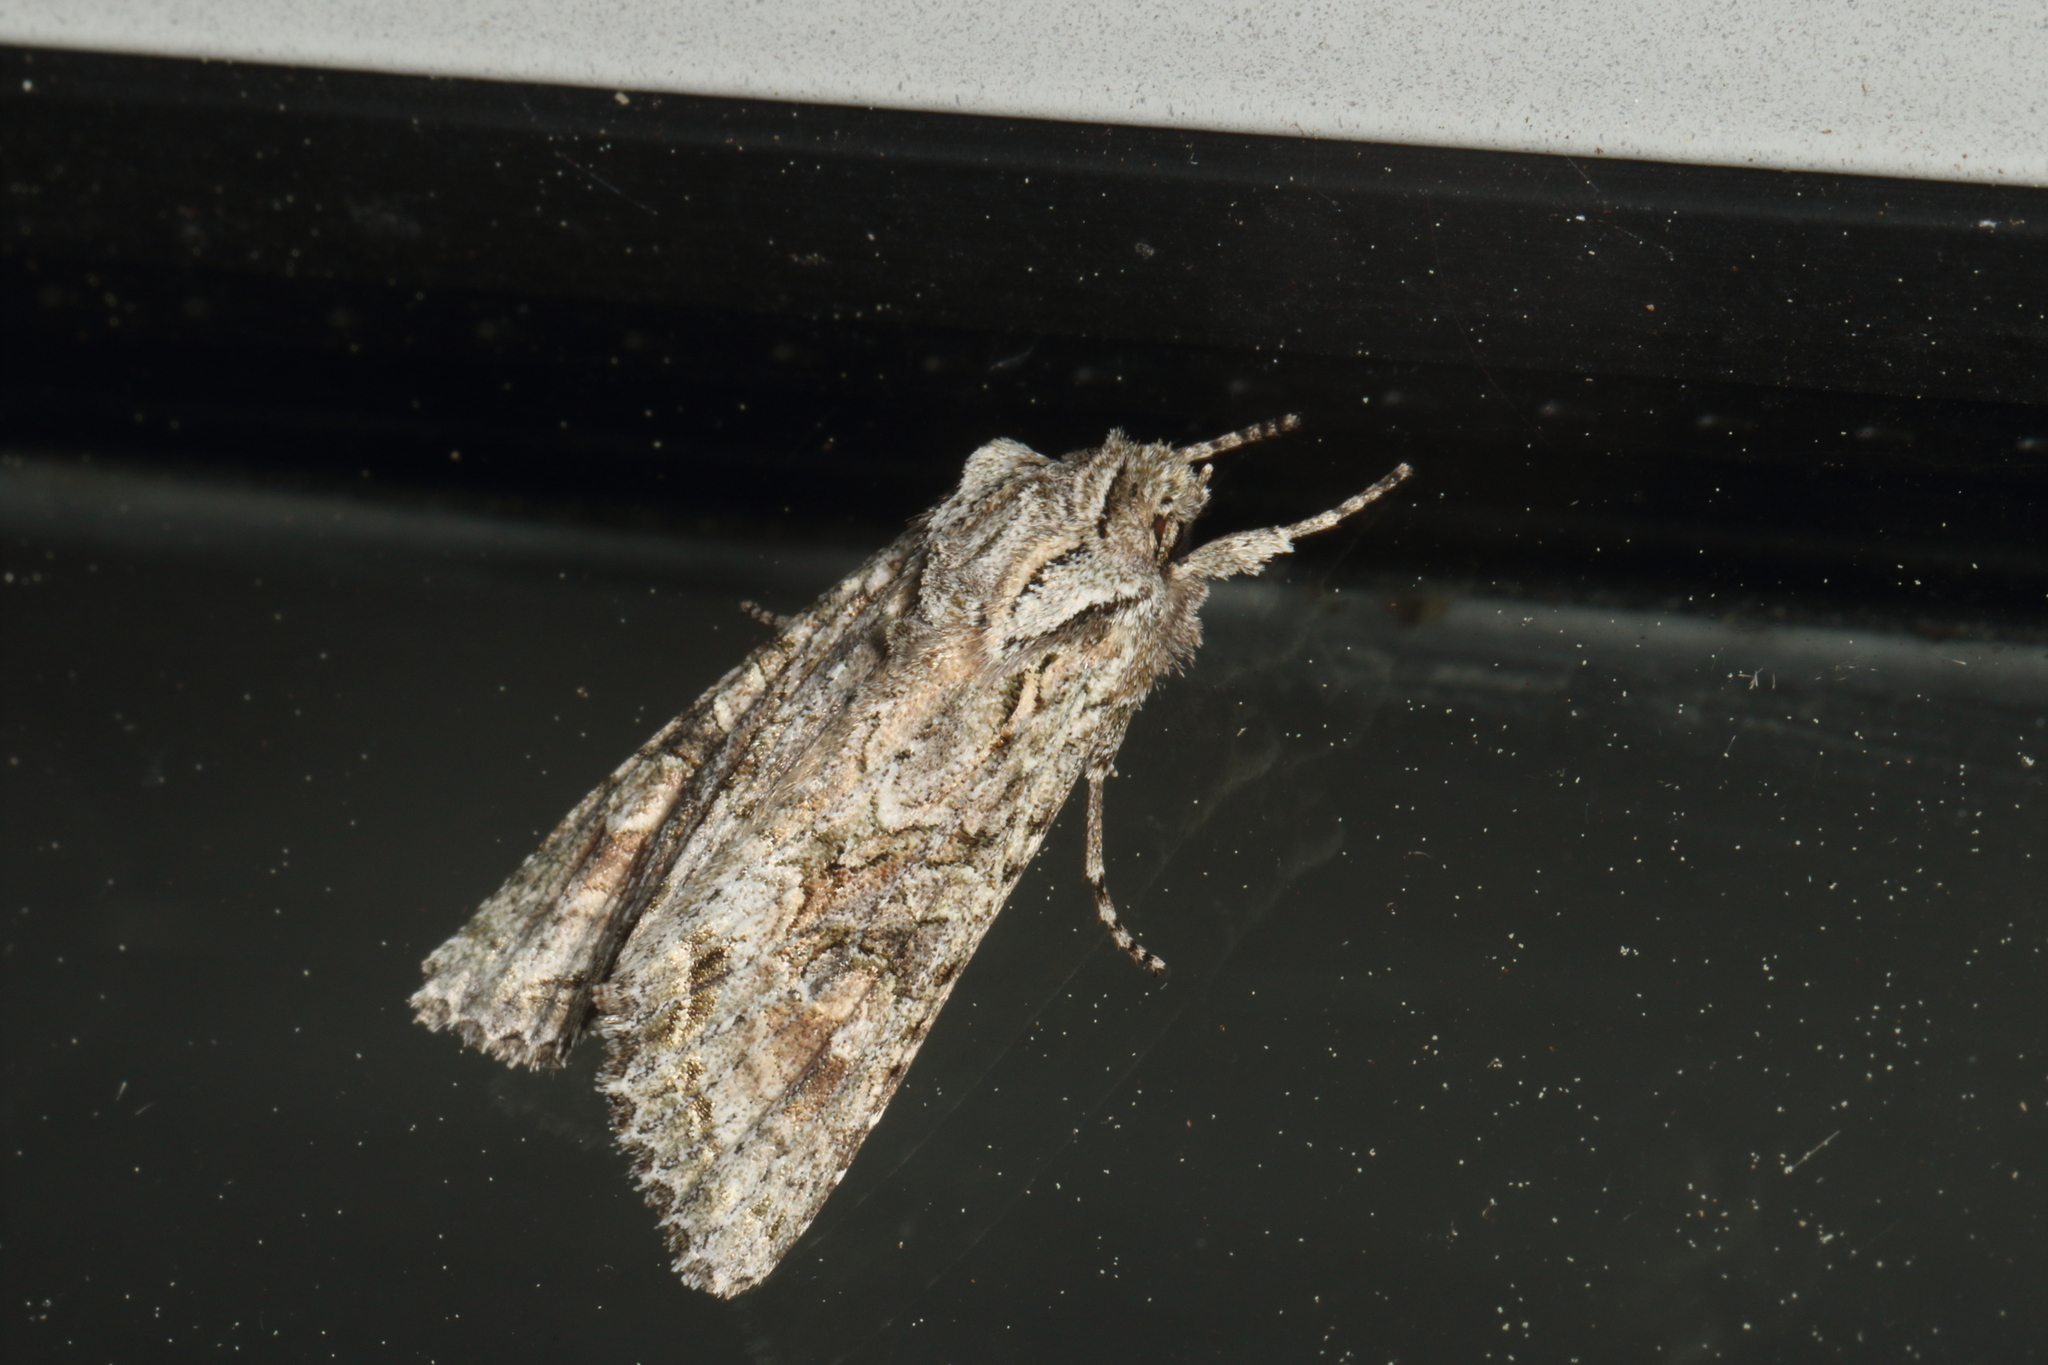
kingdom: Animalia
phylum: Arthropoda
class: Insecta
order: Lepidoptera
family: Noctuidae
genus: Ichneutica
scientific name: Ichneutica mutans
